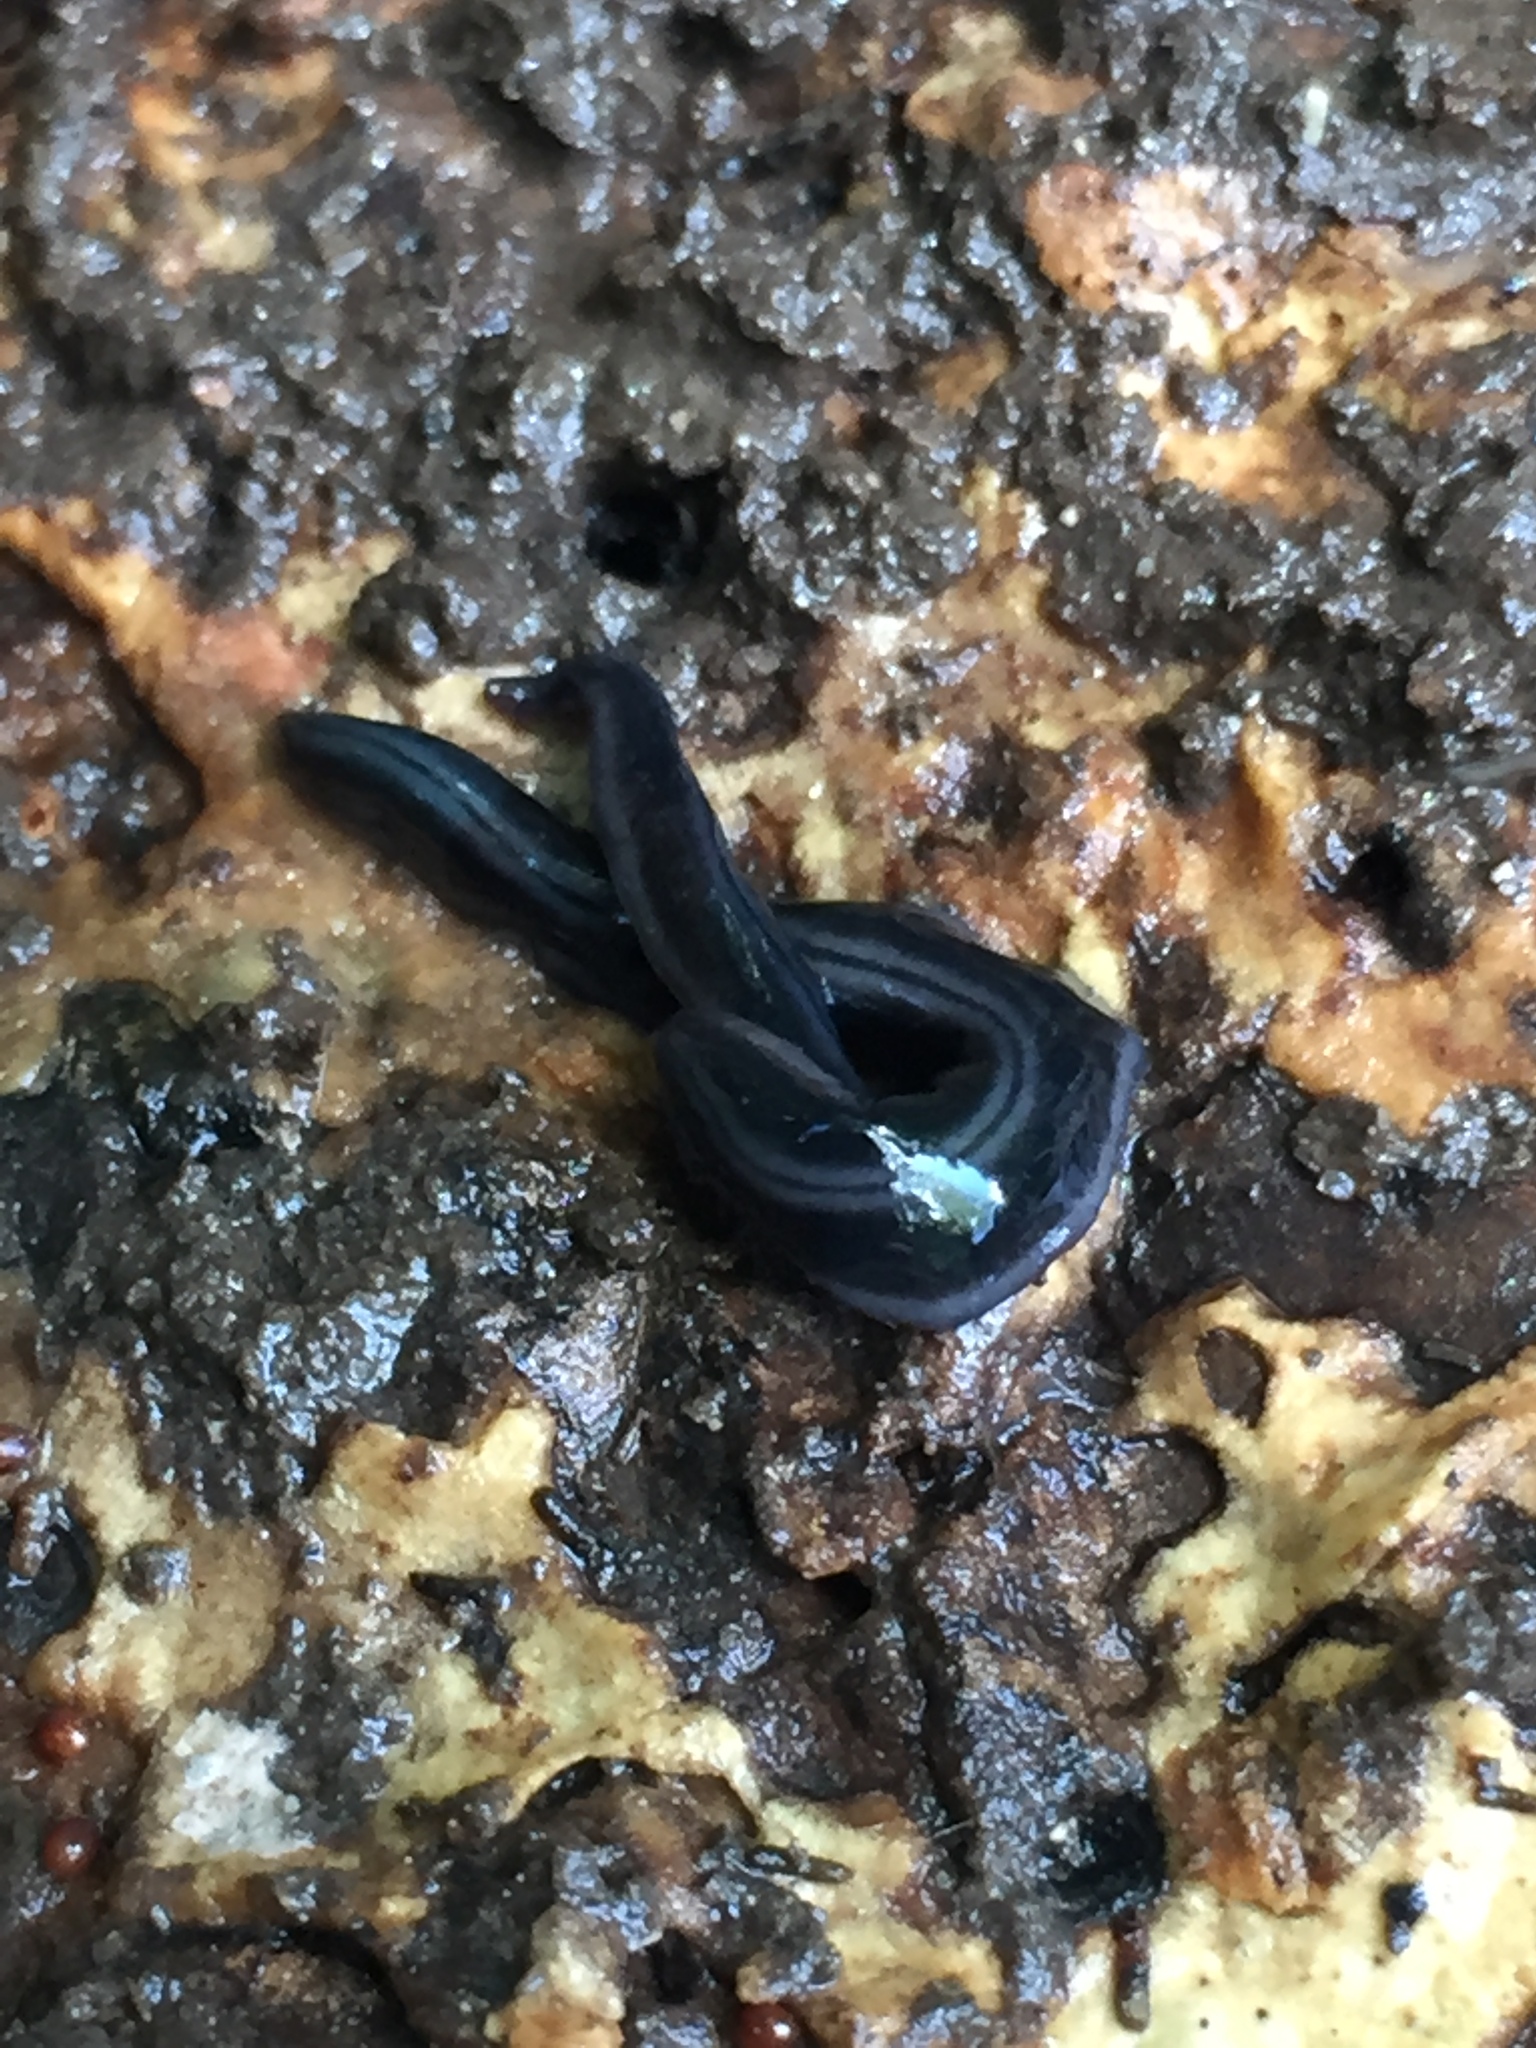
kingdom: Animalia
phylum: Platyhelminthes
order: Tricladida
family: Geoplanidae
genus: Parakontikia
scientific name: Parakontikia ventrolineata
